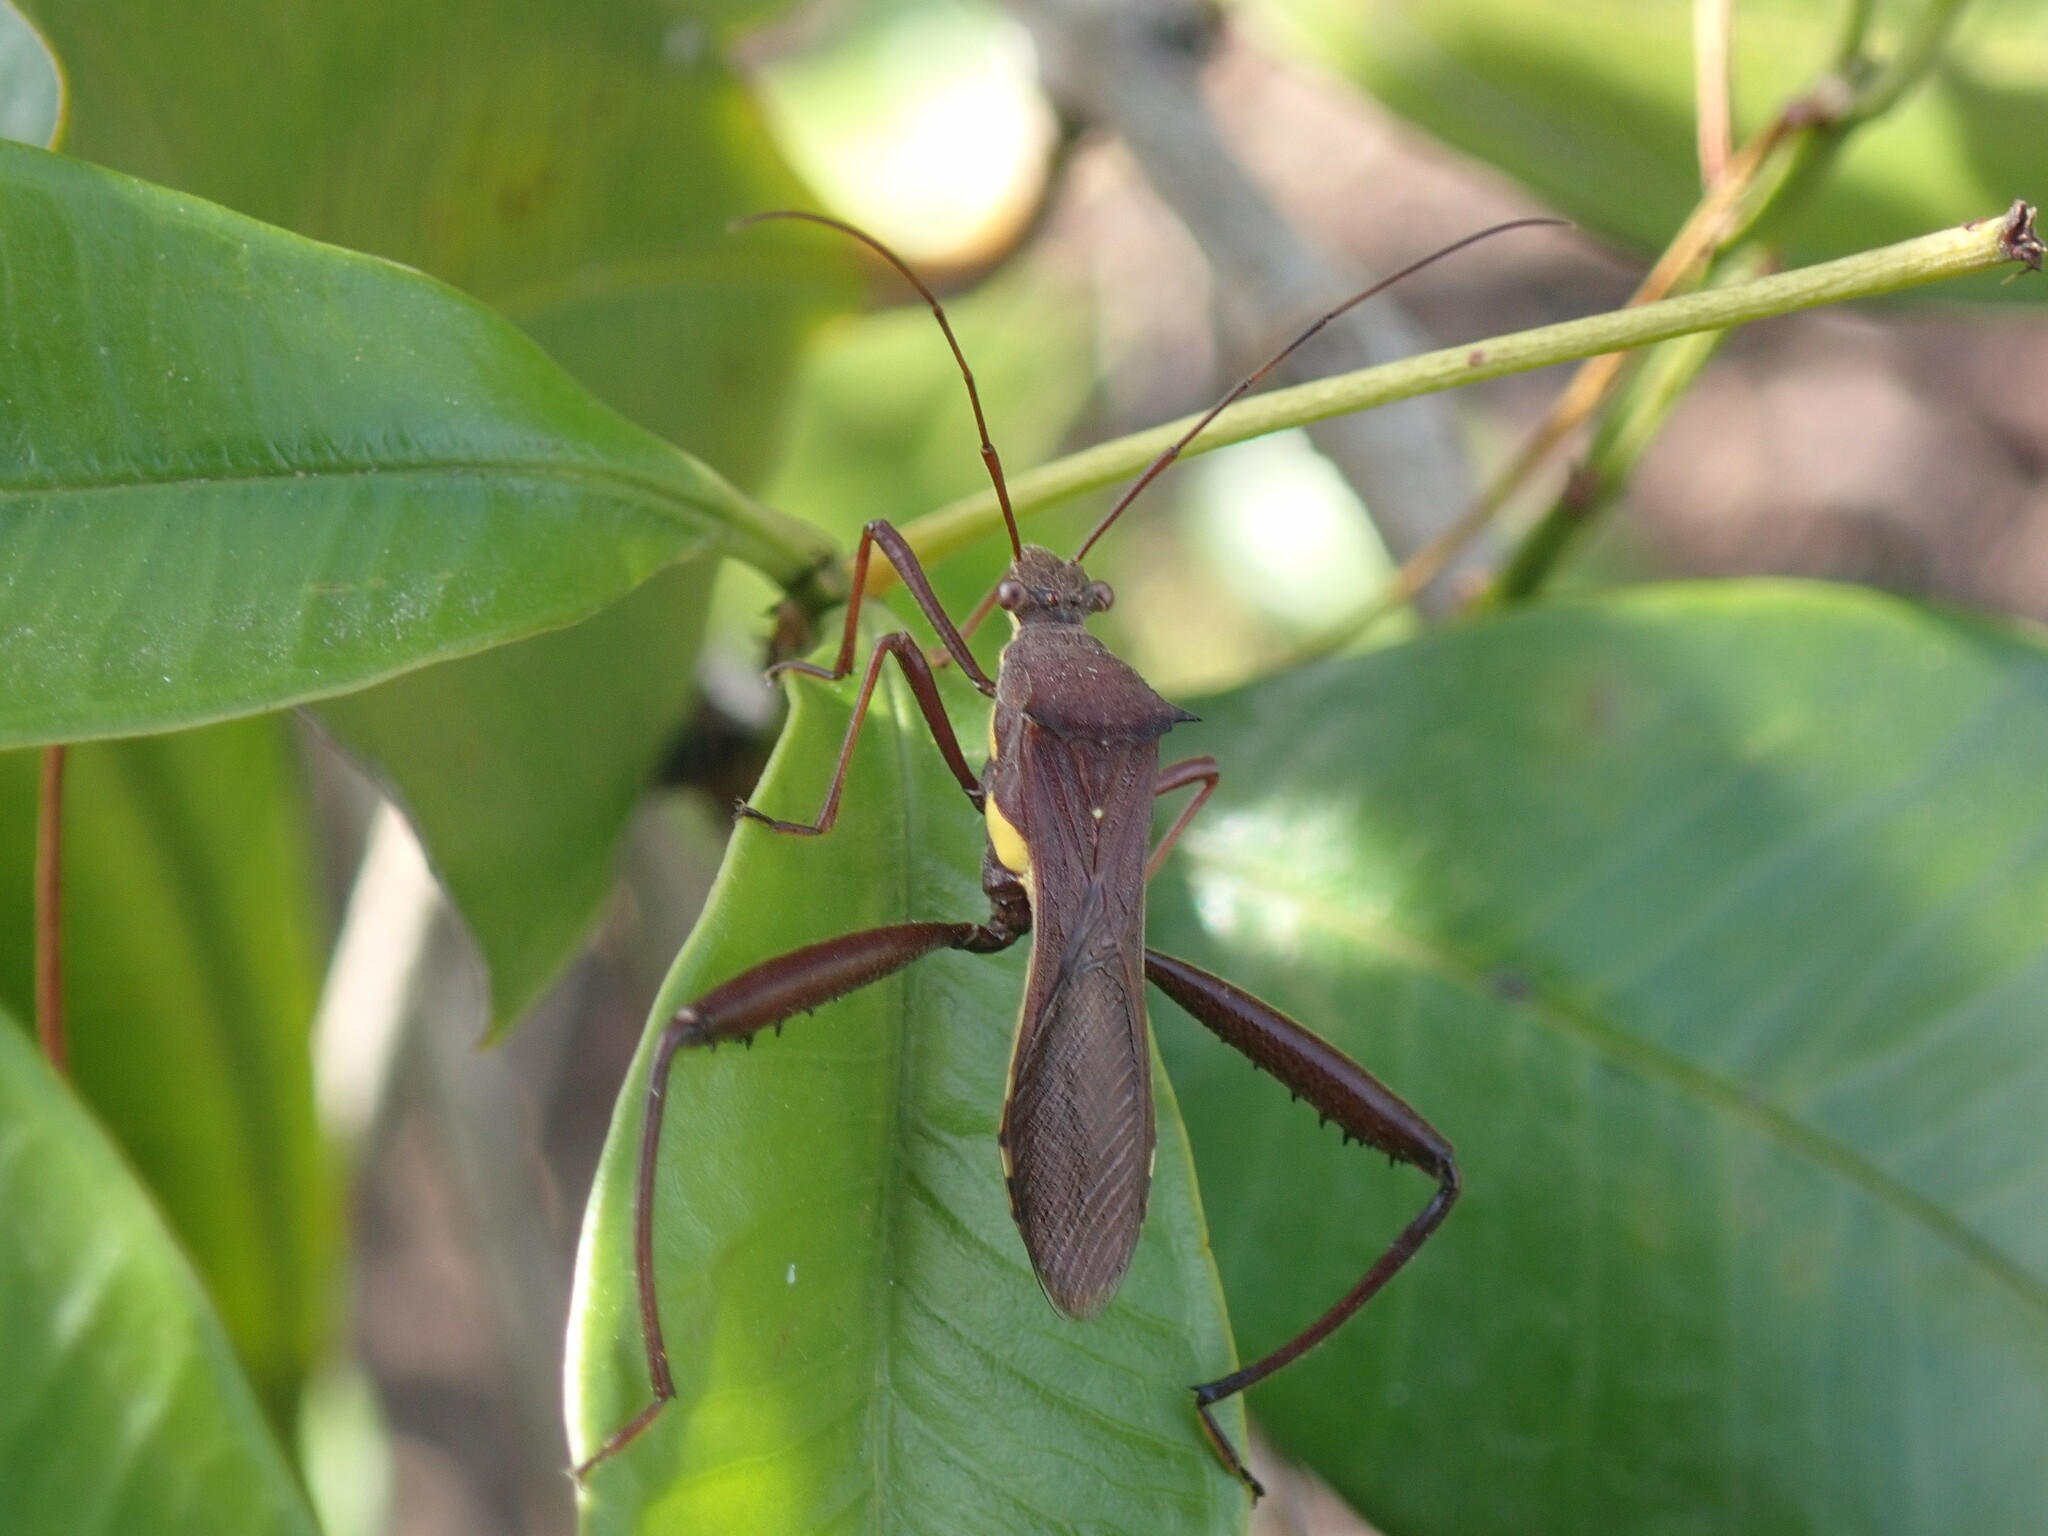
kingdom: Animalia
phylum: Arthropoda
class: Insecta
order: Hemiptera
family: Alydidae
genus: Riptortus
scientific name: Riptortus serripes
